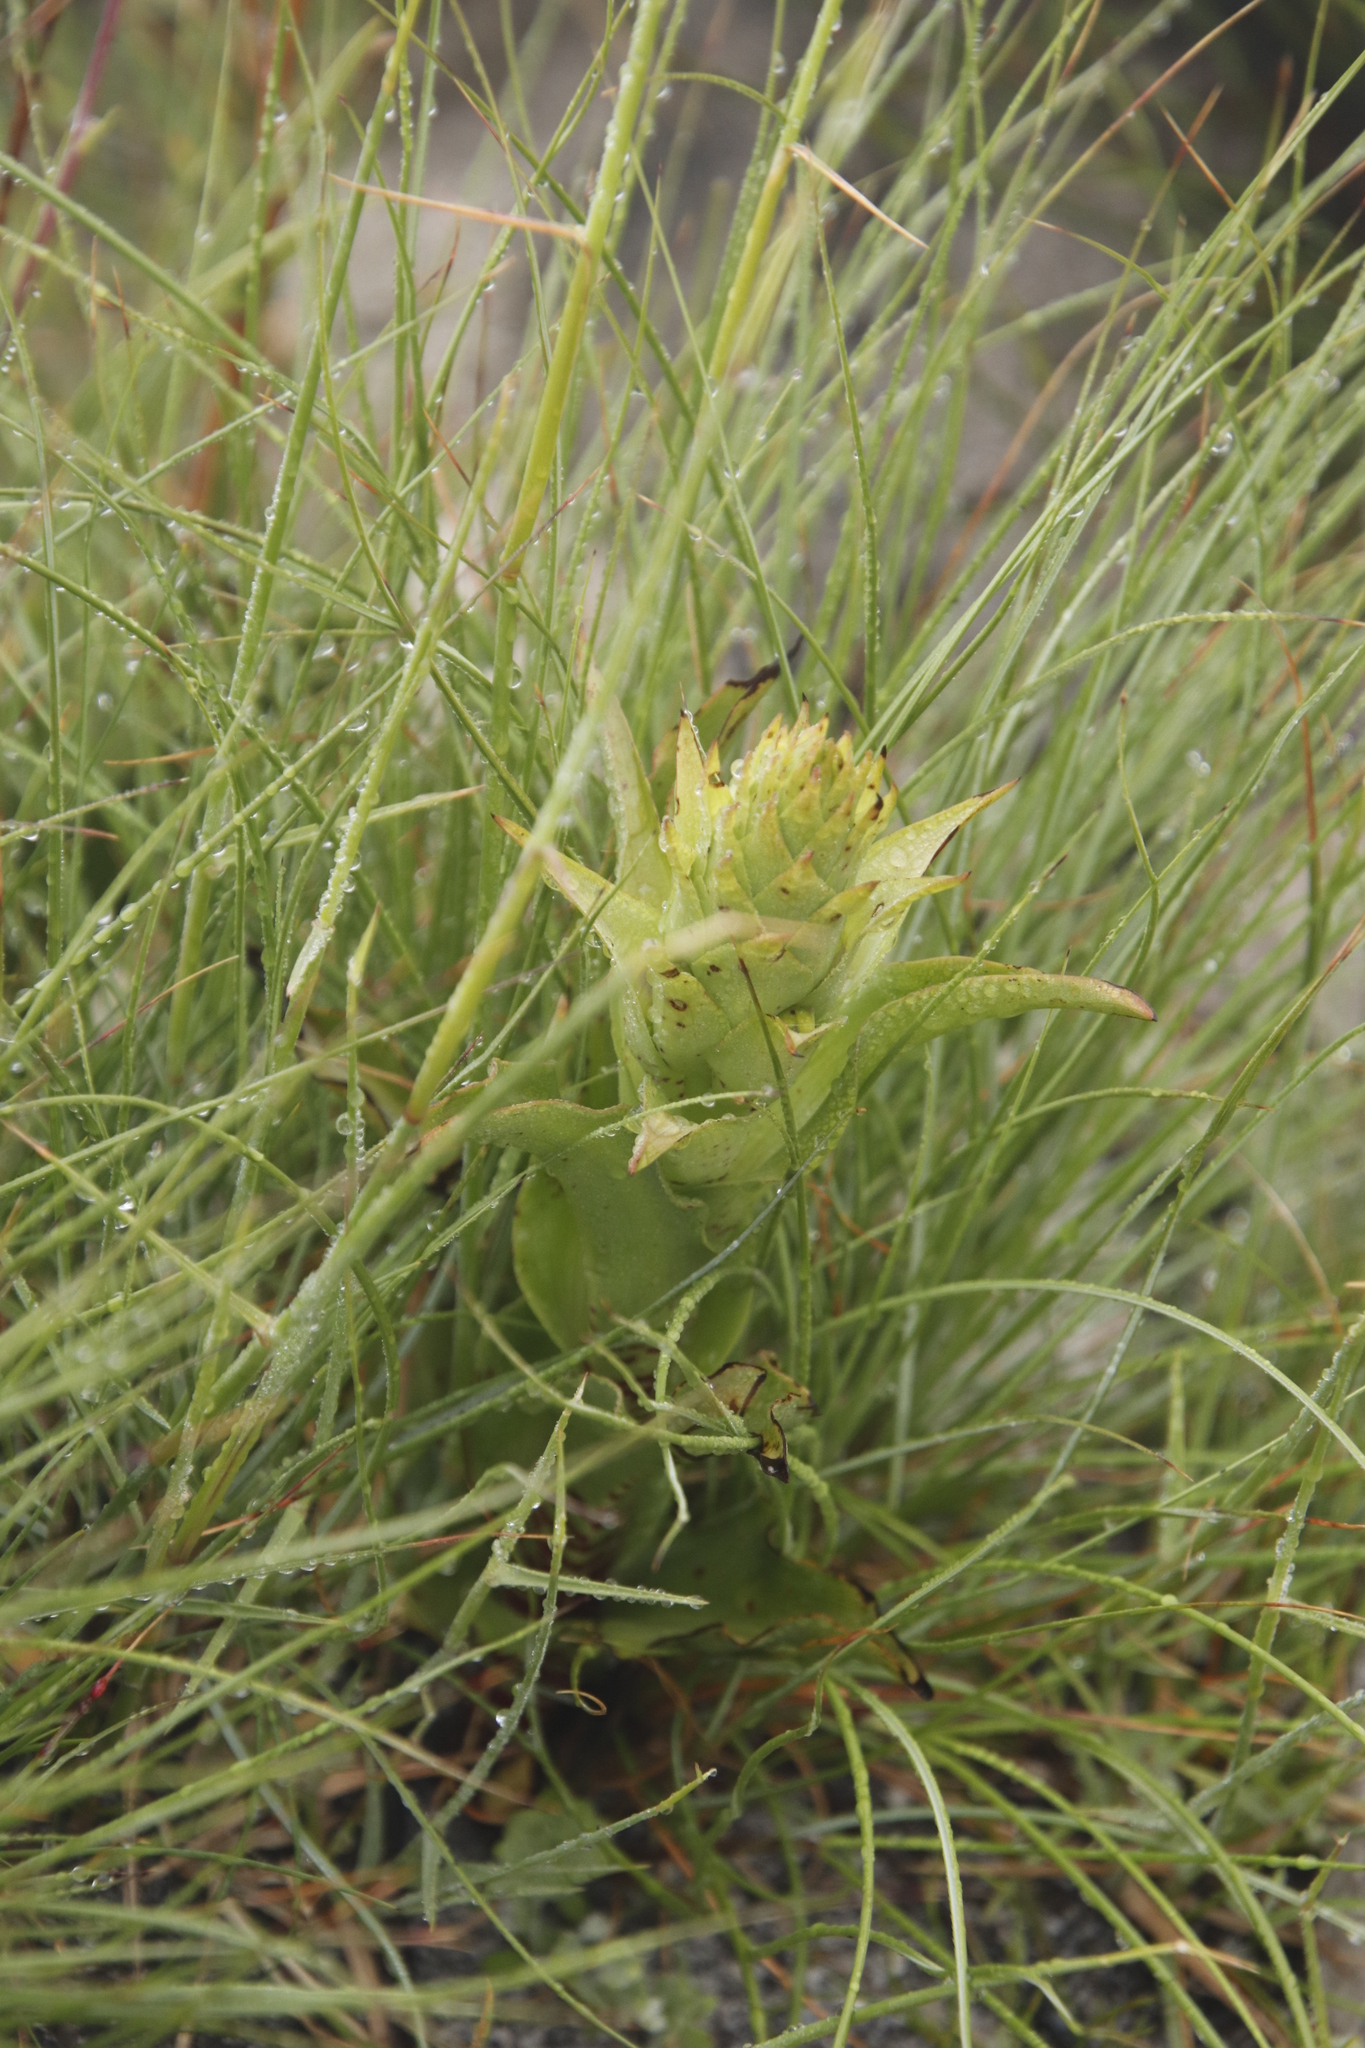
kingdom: Plantae
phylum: Tracheophyta
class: Liliopsida
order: Asparagales
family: Orchidaceae
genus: Disa
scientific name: Disa cornuta
